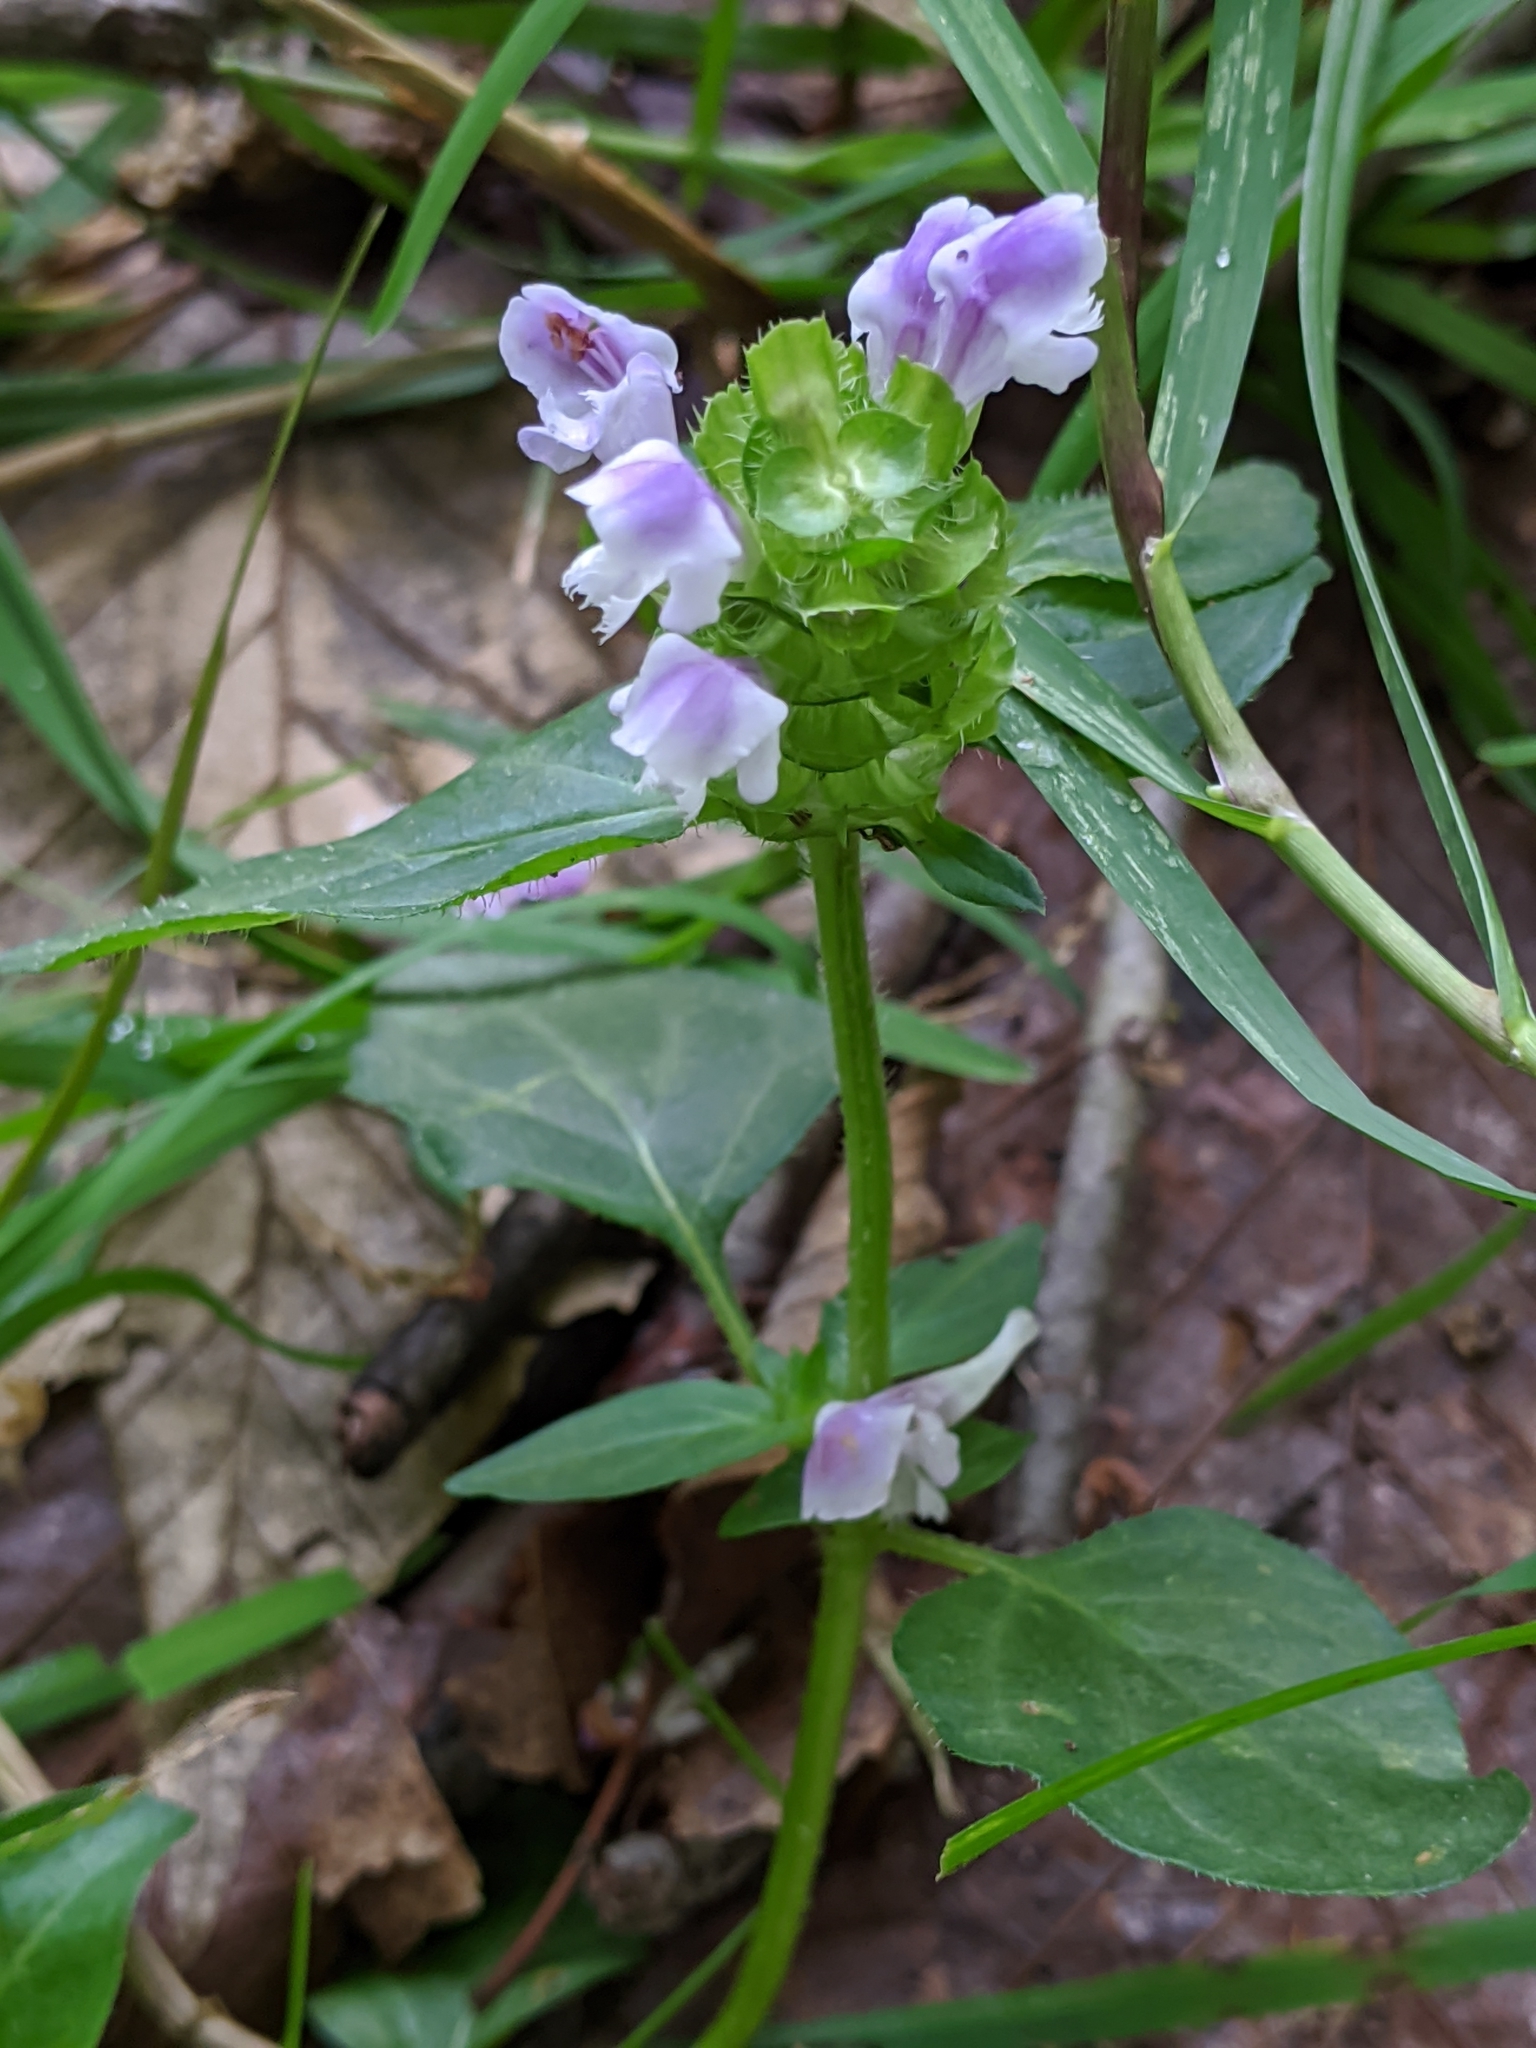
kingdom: Plantae
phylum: Tracheophyta
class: Magnoliopsida
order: Lamiales
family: Lamiaceae
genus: Prunella
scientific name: Prunella vulgaris
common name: Heal-all
